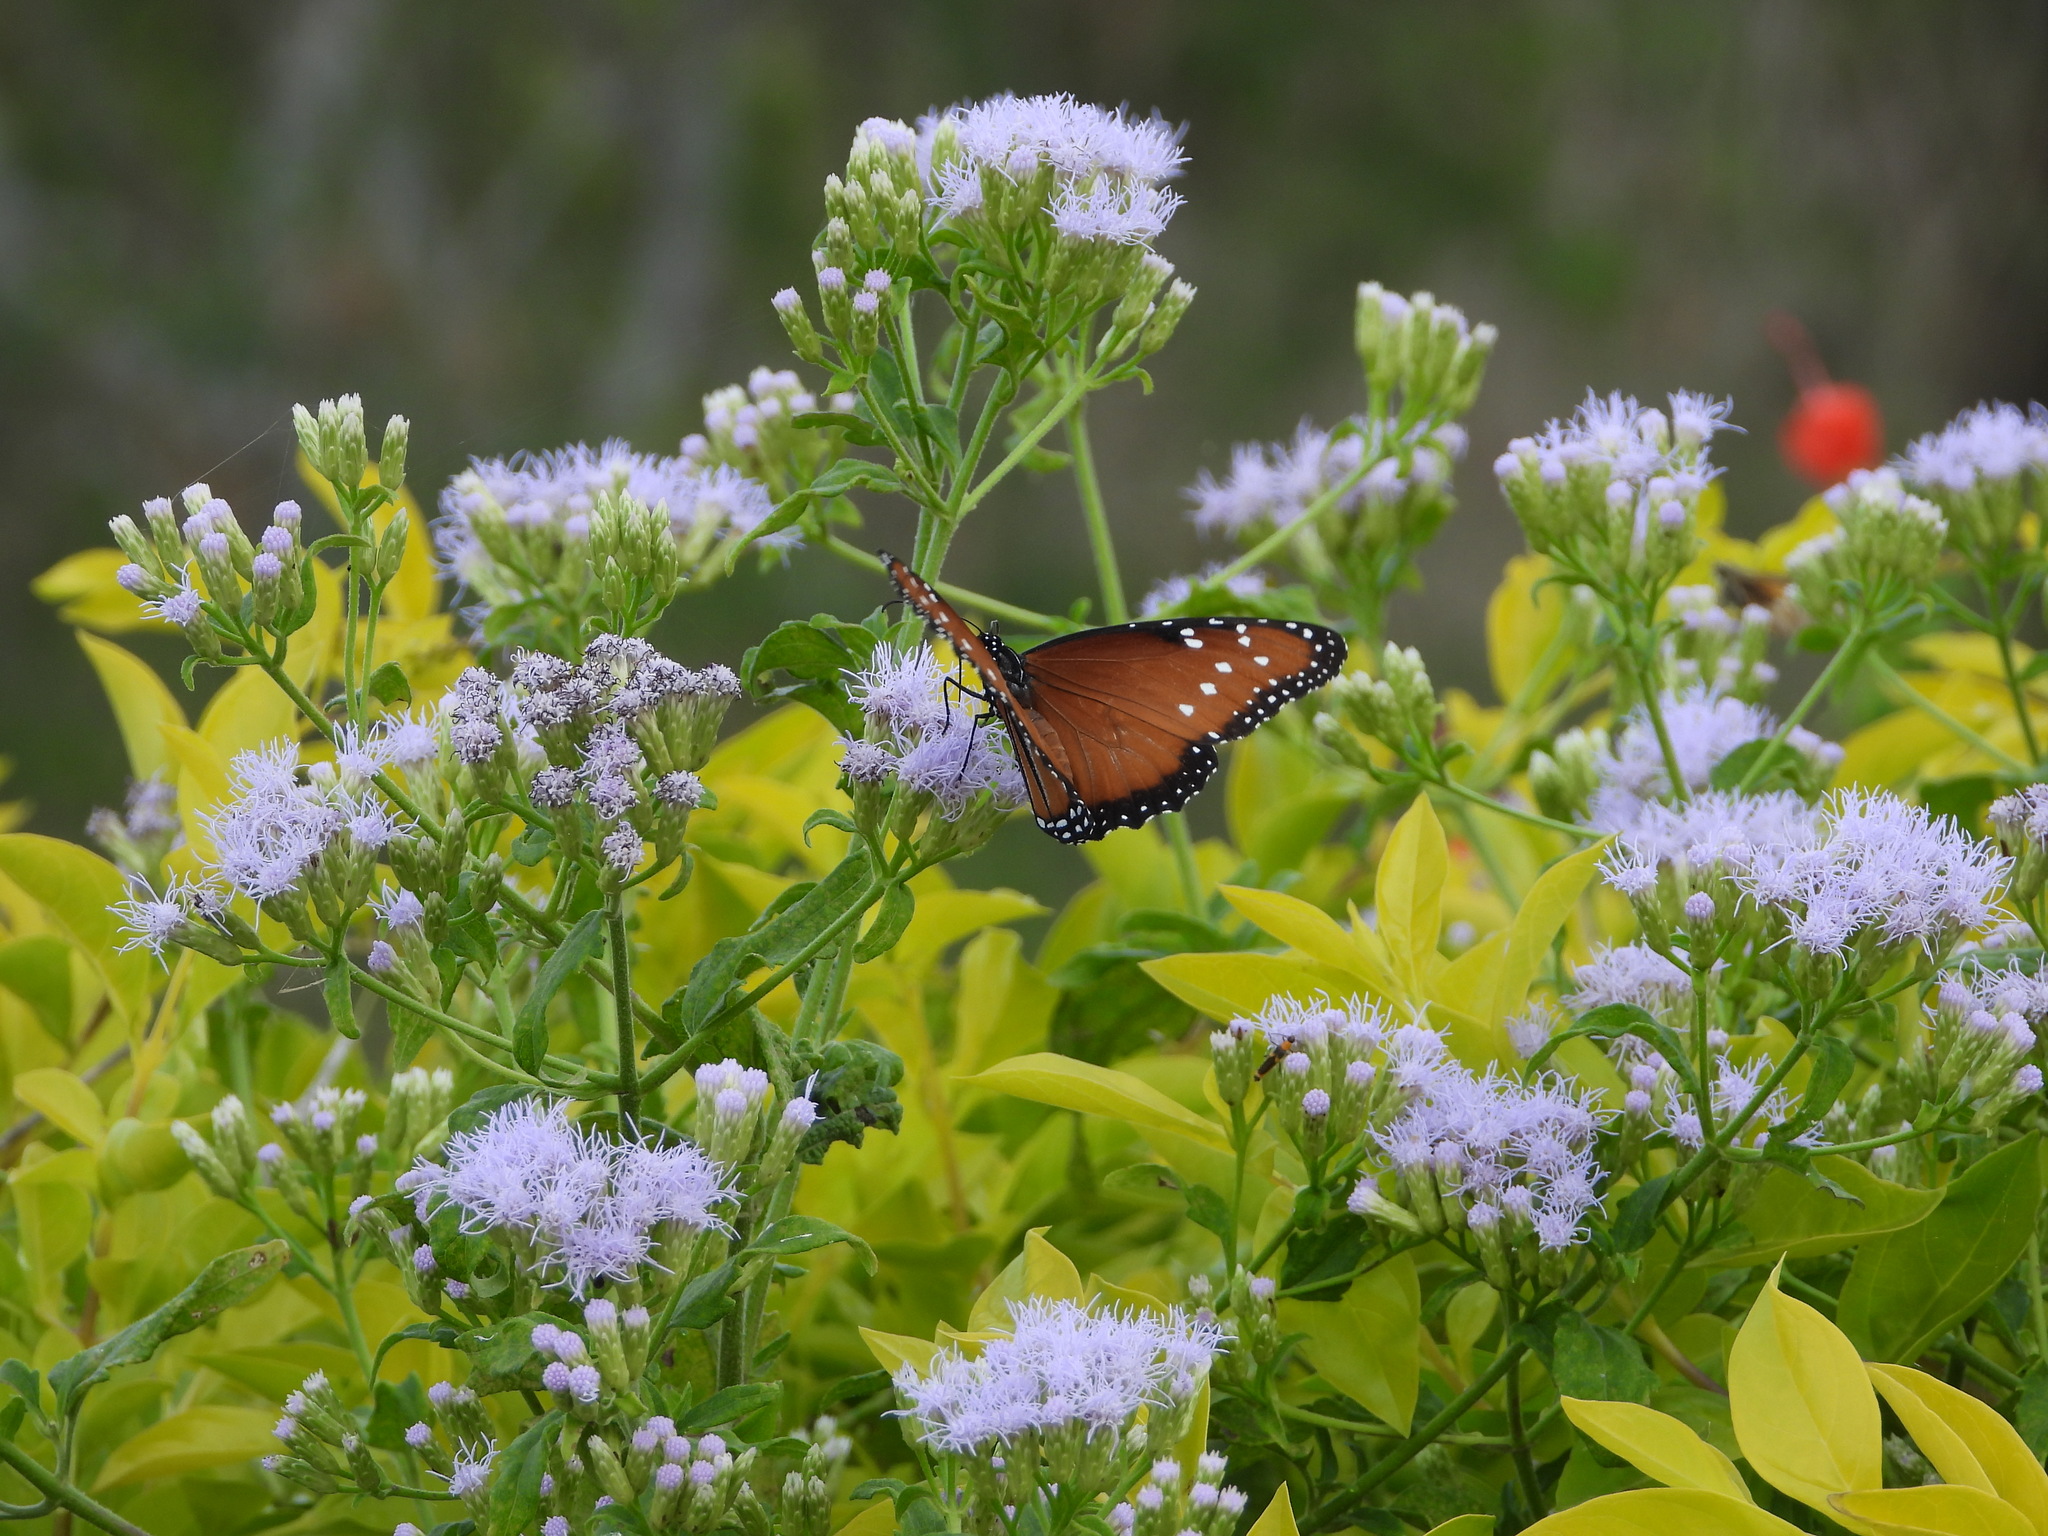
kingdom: Animalia
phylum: Arthropoda
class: Insecta
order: Lepidoptera
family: Nymphalidae
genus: Danaus
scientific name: Danaus gilippus
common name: Queen
